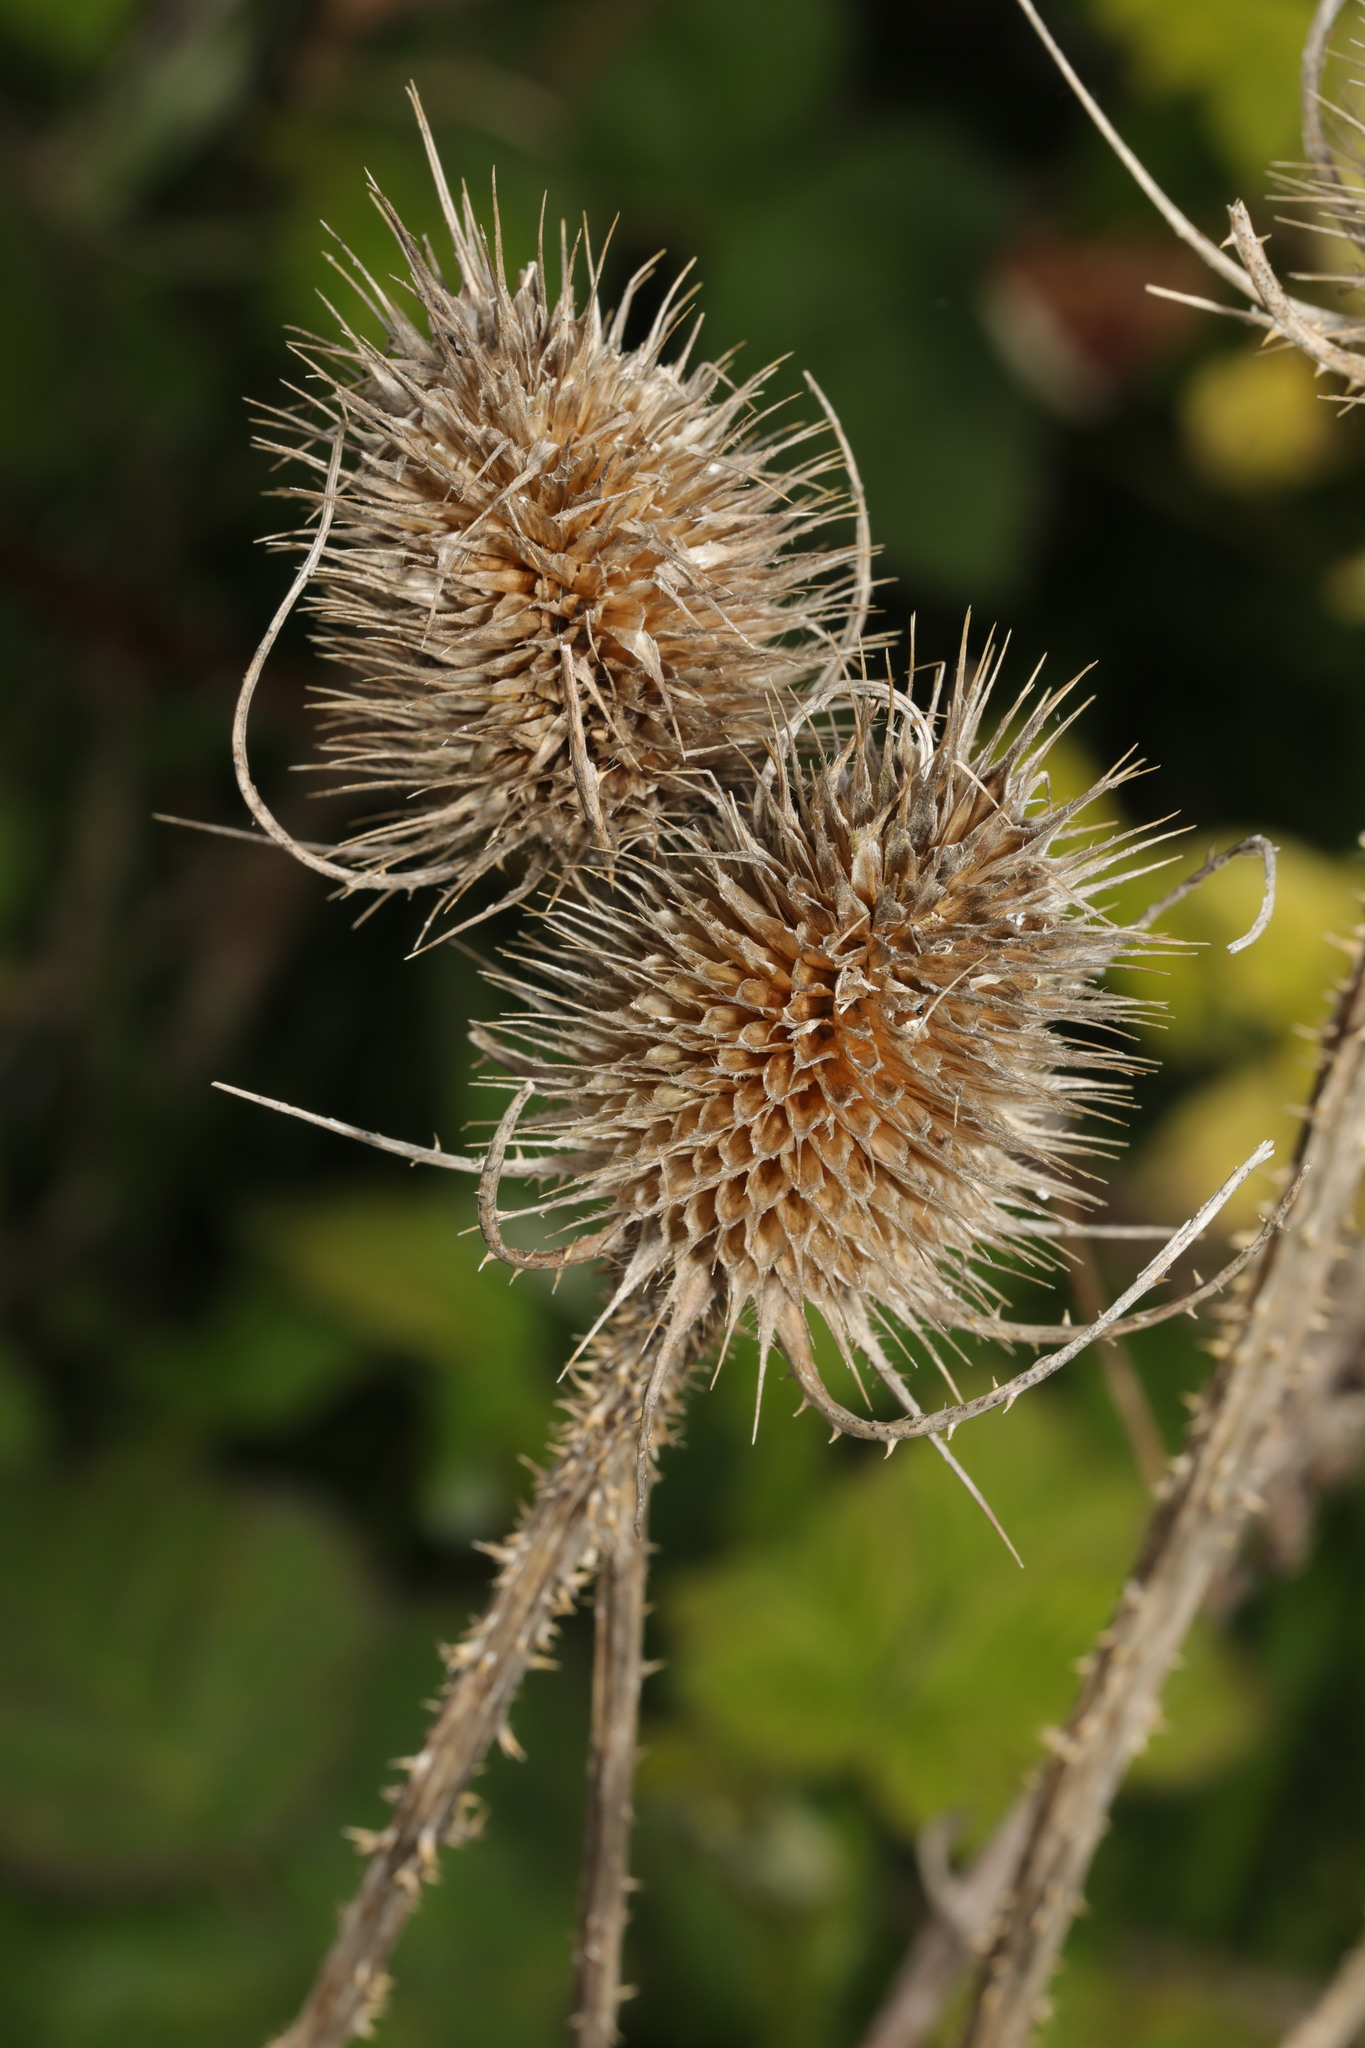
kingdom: Plantae
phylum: Tracheophyta
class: Magnoliopsida
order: Dipsacales
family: Caprifoliaceae
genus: Dipsacus
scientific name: Dipsacus fullonum
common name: Teasel
